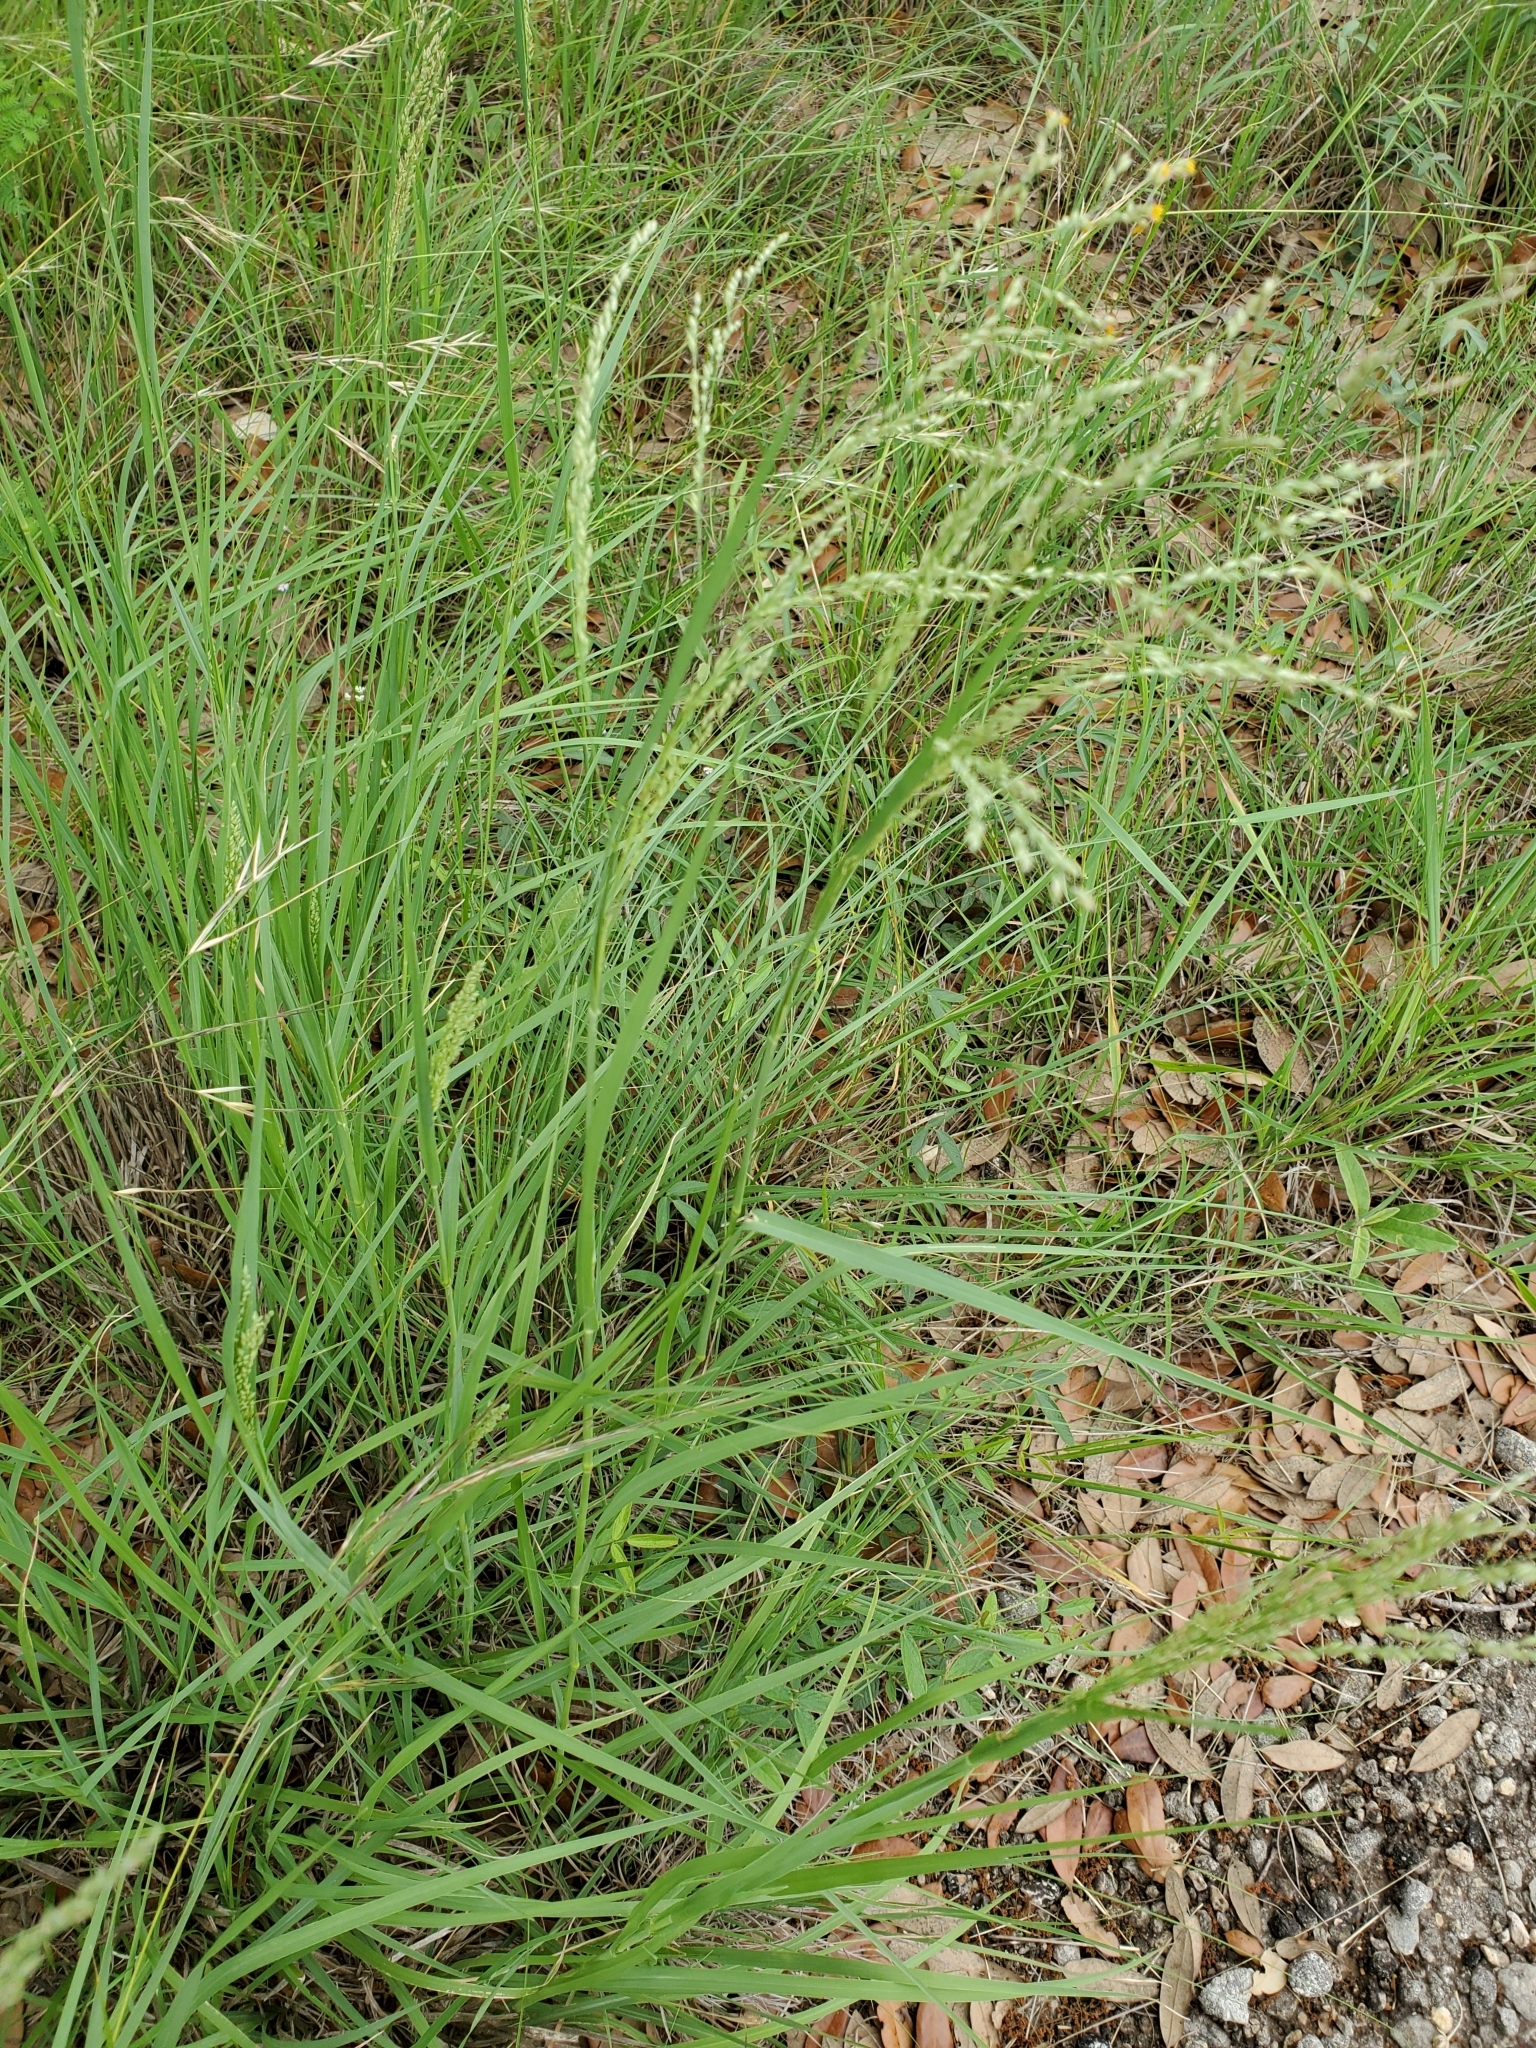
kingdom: Plantae
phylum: Tracheophyta
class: Liliopsida
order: Poales
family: Poaceae
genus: Panicum
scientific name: Panicum coloratum
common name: Kleingrass
